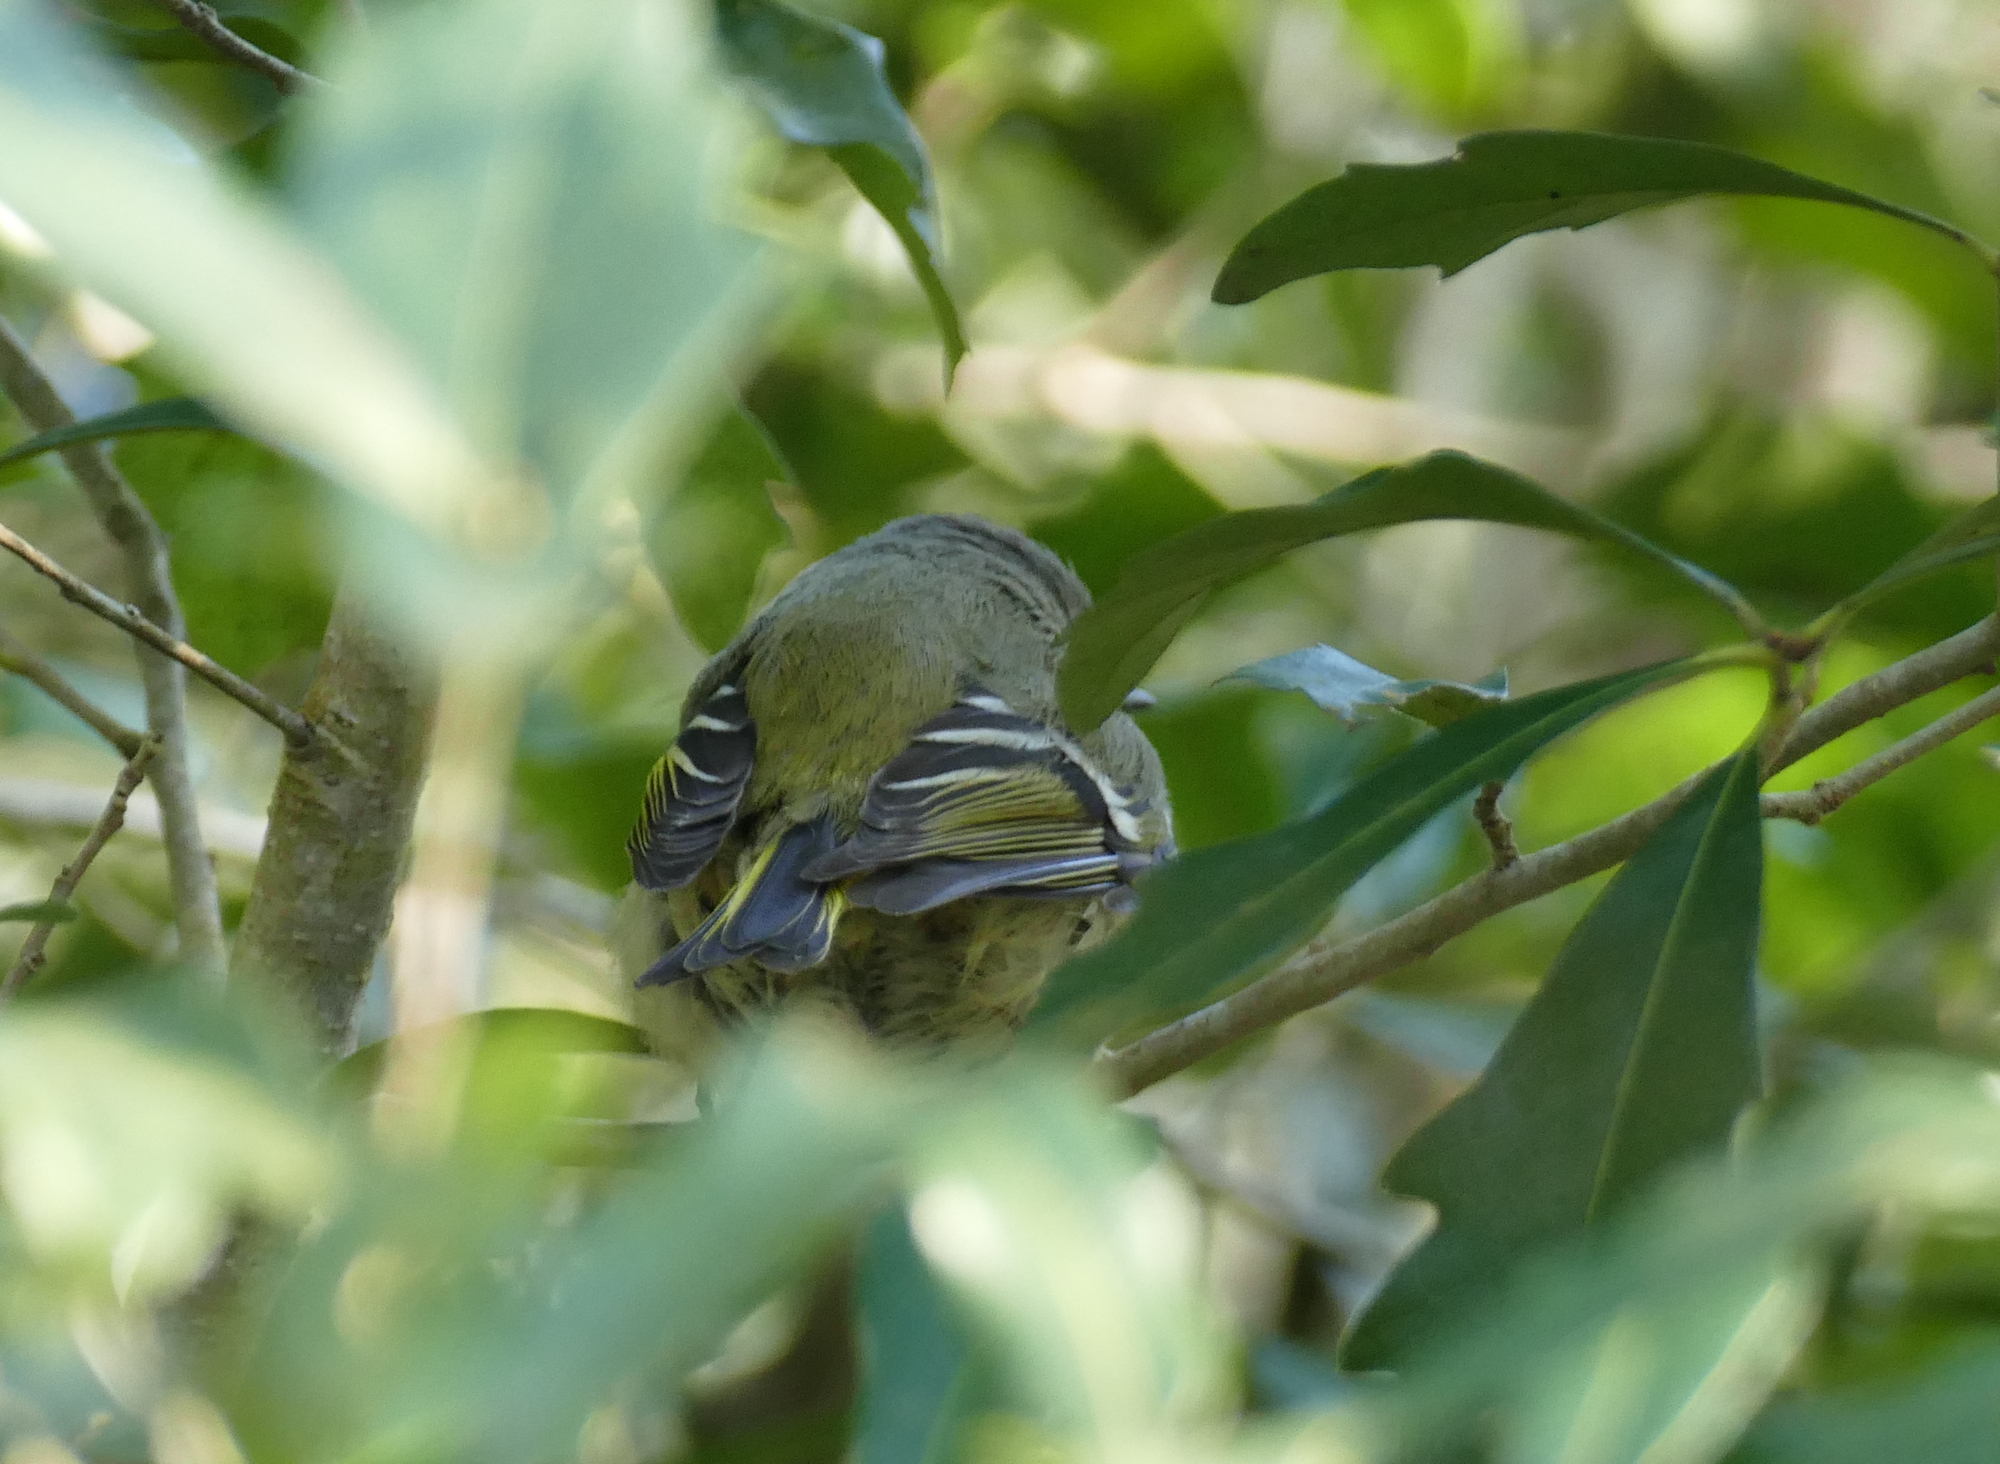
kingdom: Animalia
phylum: Chordata
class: Aves
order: Passeriformes
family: Regulidae
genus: Regulus
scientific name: Regulus calendula
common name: Ruby-crowned kinglet
